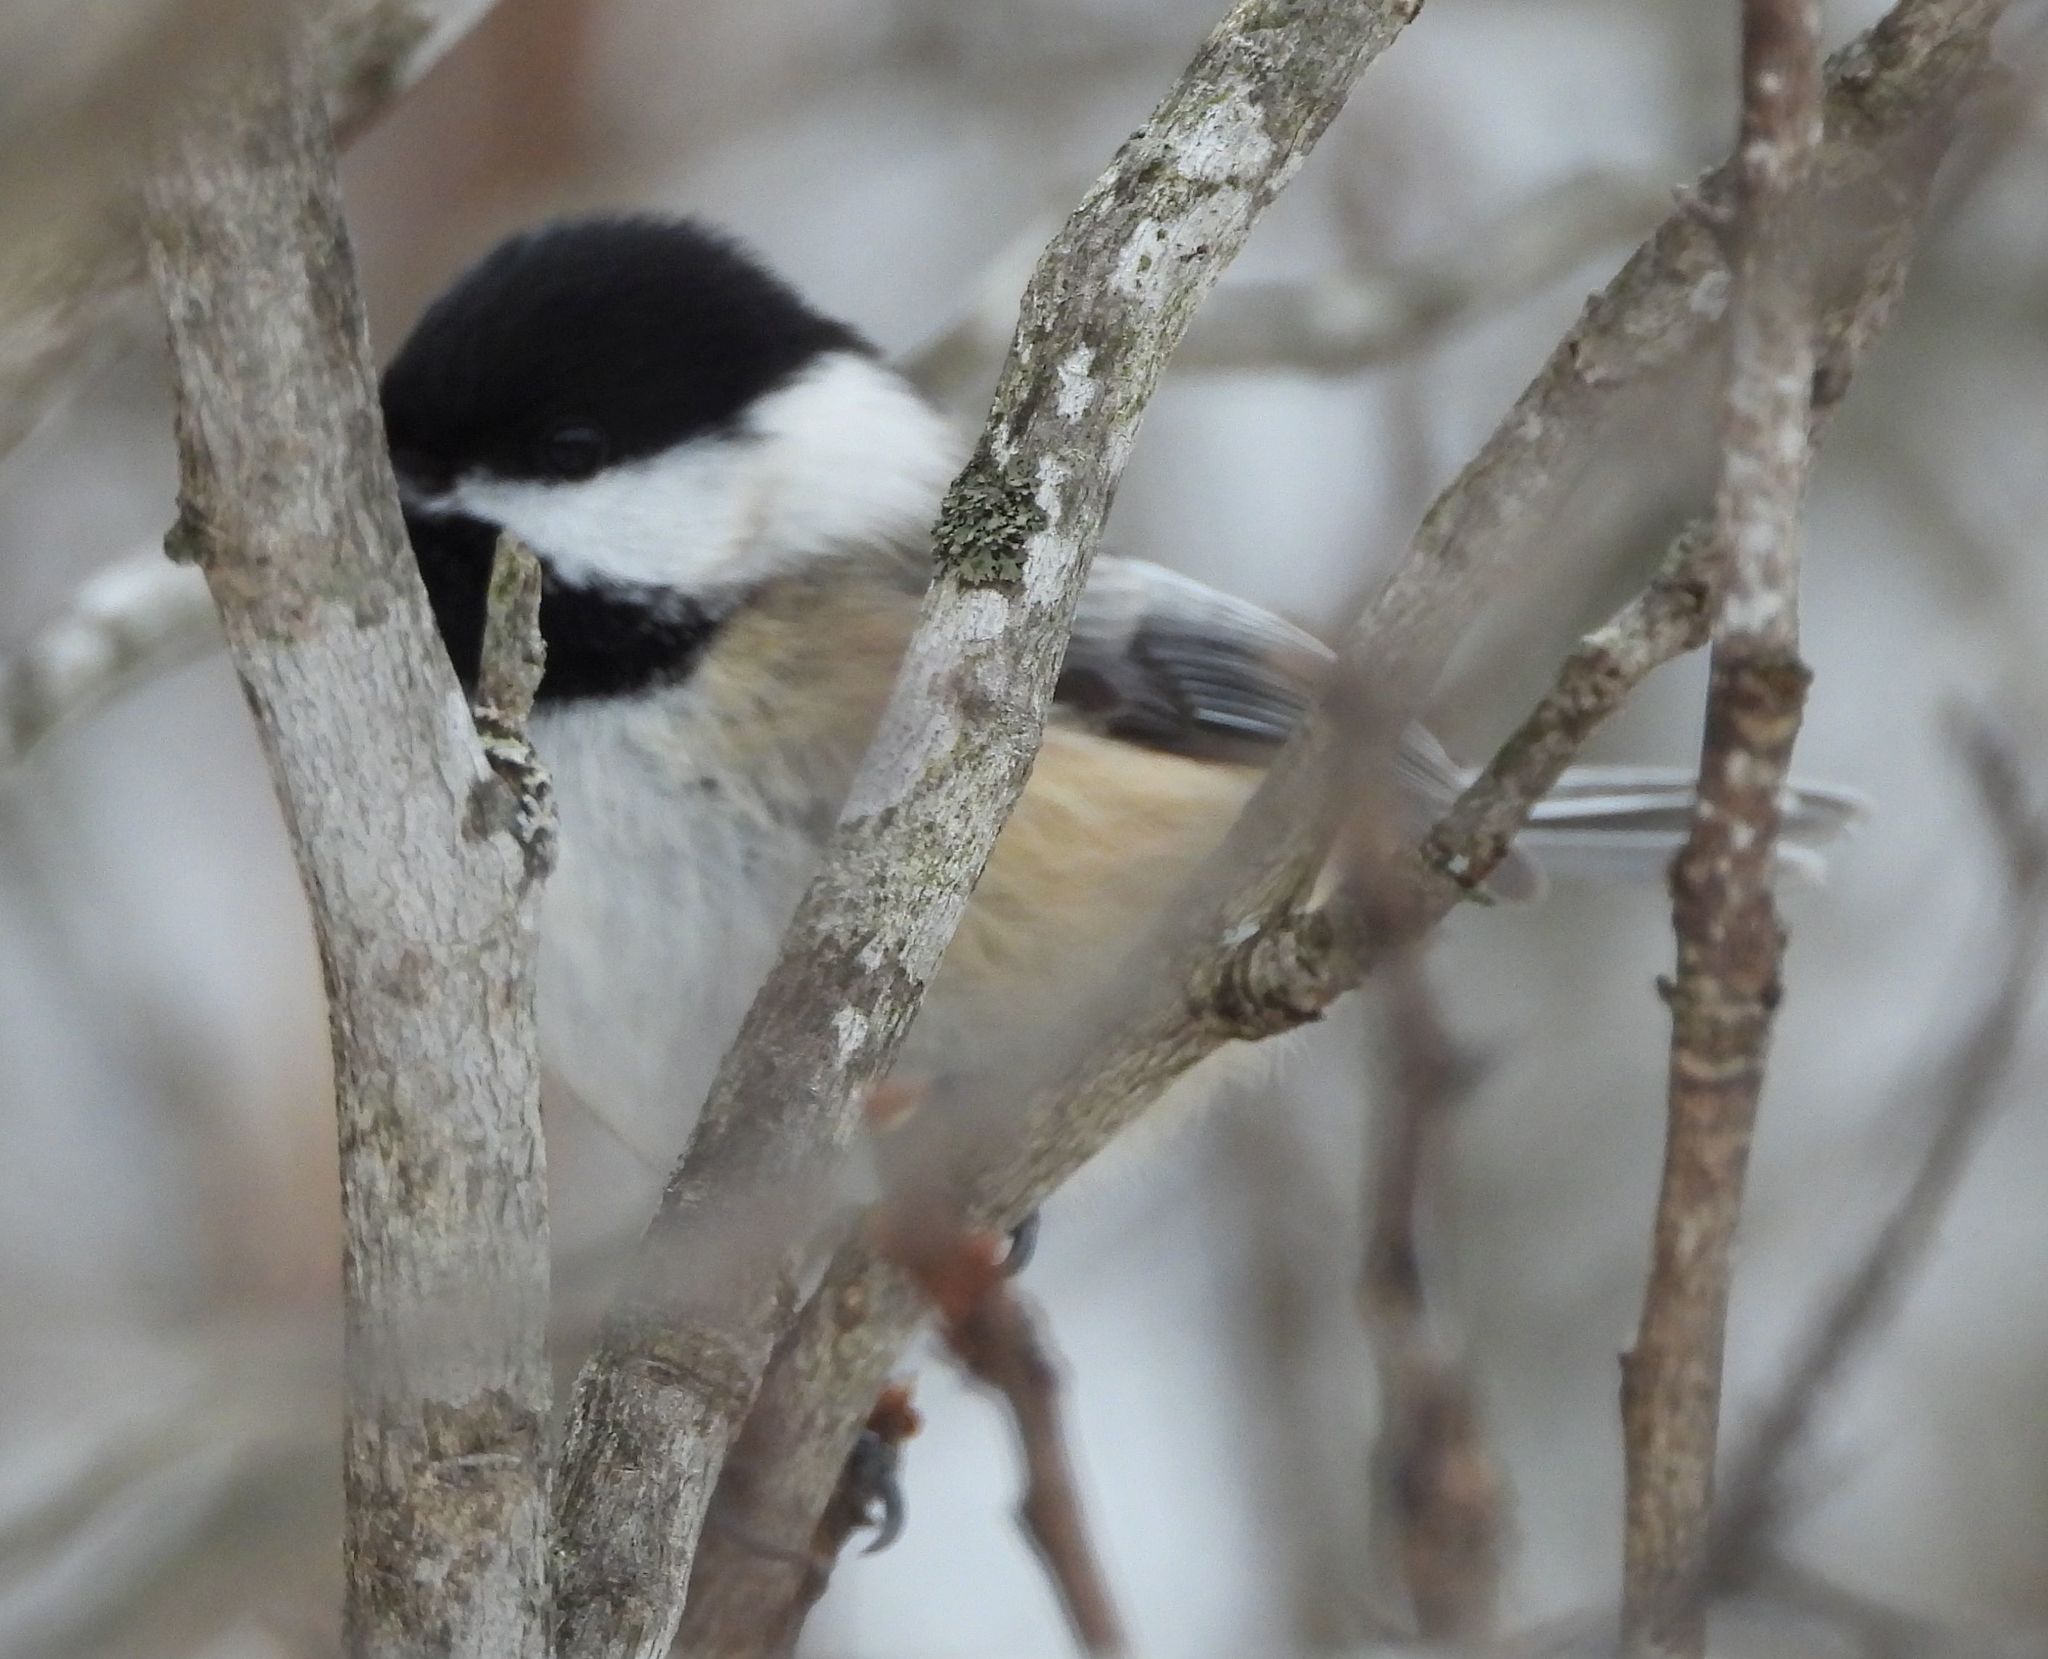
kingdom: Animalia
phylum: Chordata
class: Aves
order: Passeriformes
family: Paridae
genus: Poecile
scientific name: Poecile atricapillus
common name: Black-capped chickadee
